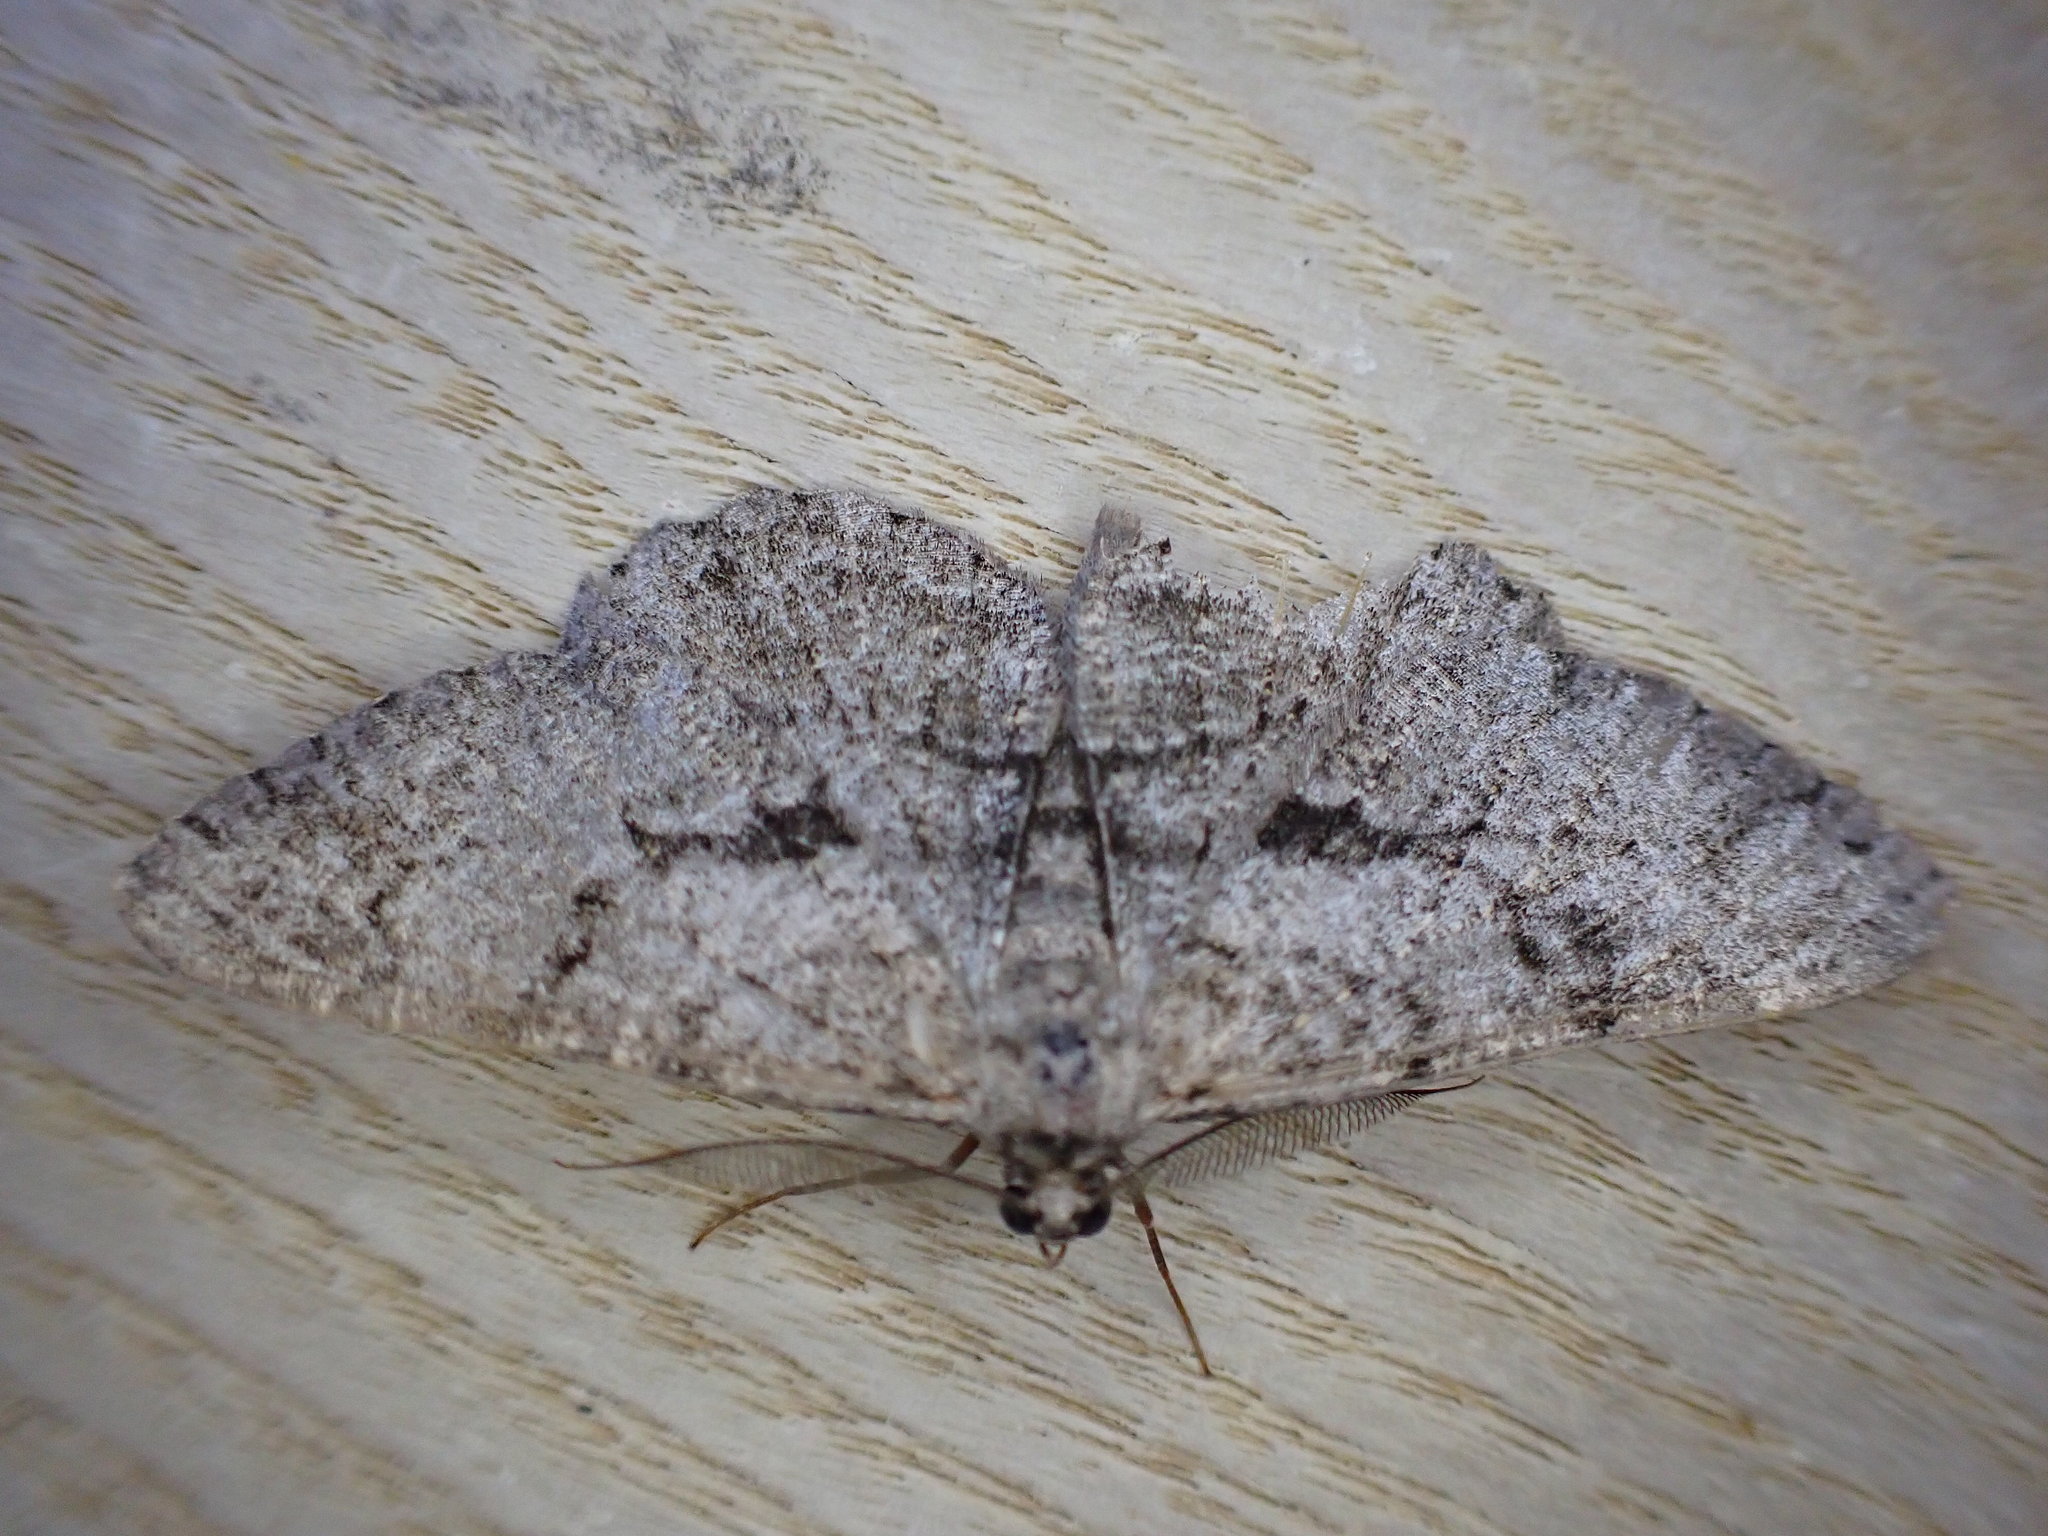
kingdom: Animalia
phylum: Arthropoda
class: Insecta
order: Lepidoptera
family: Geometridae
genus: Peribatodes
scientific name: Peribatodes rhomboidaria
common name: Willow beauty
